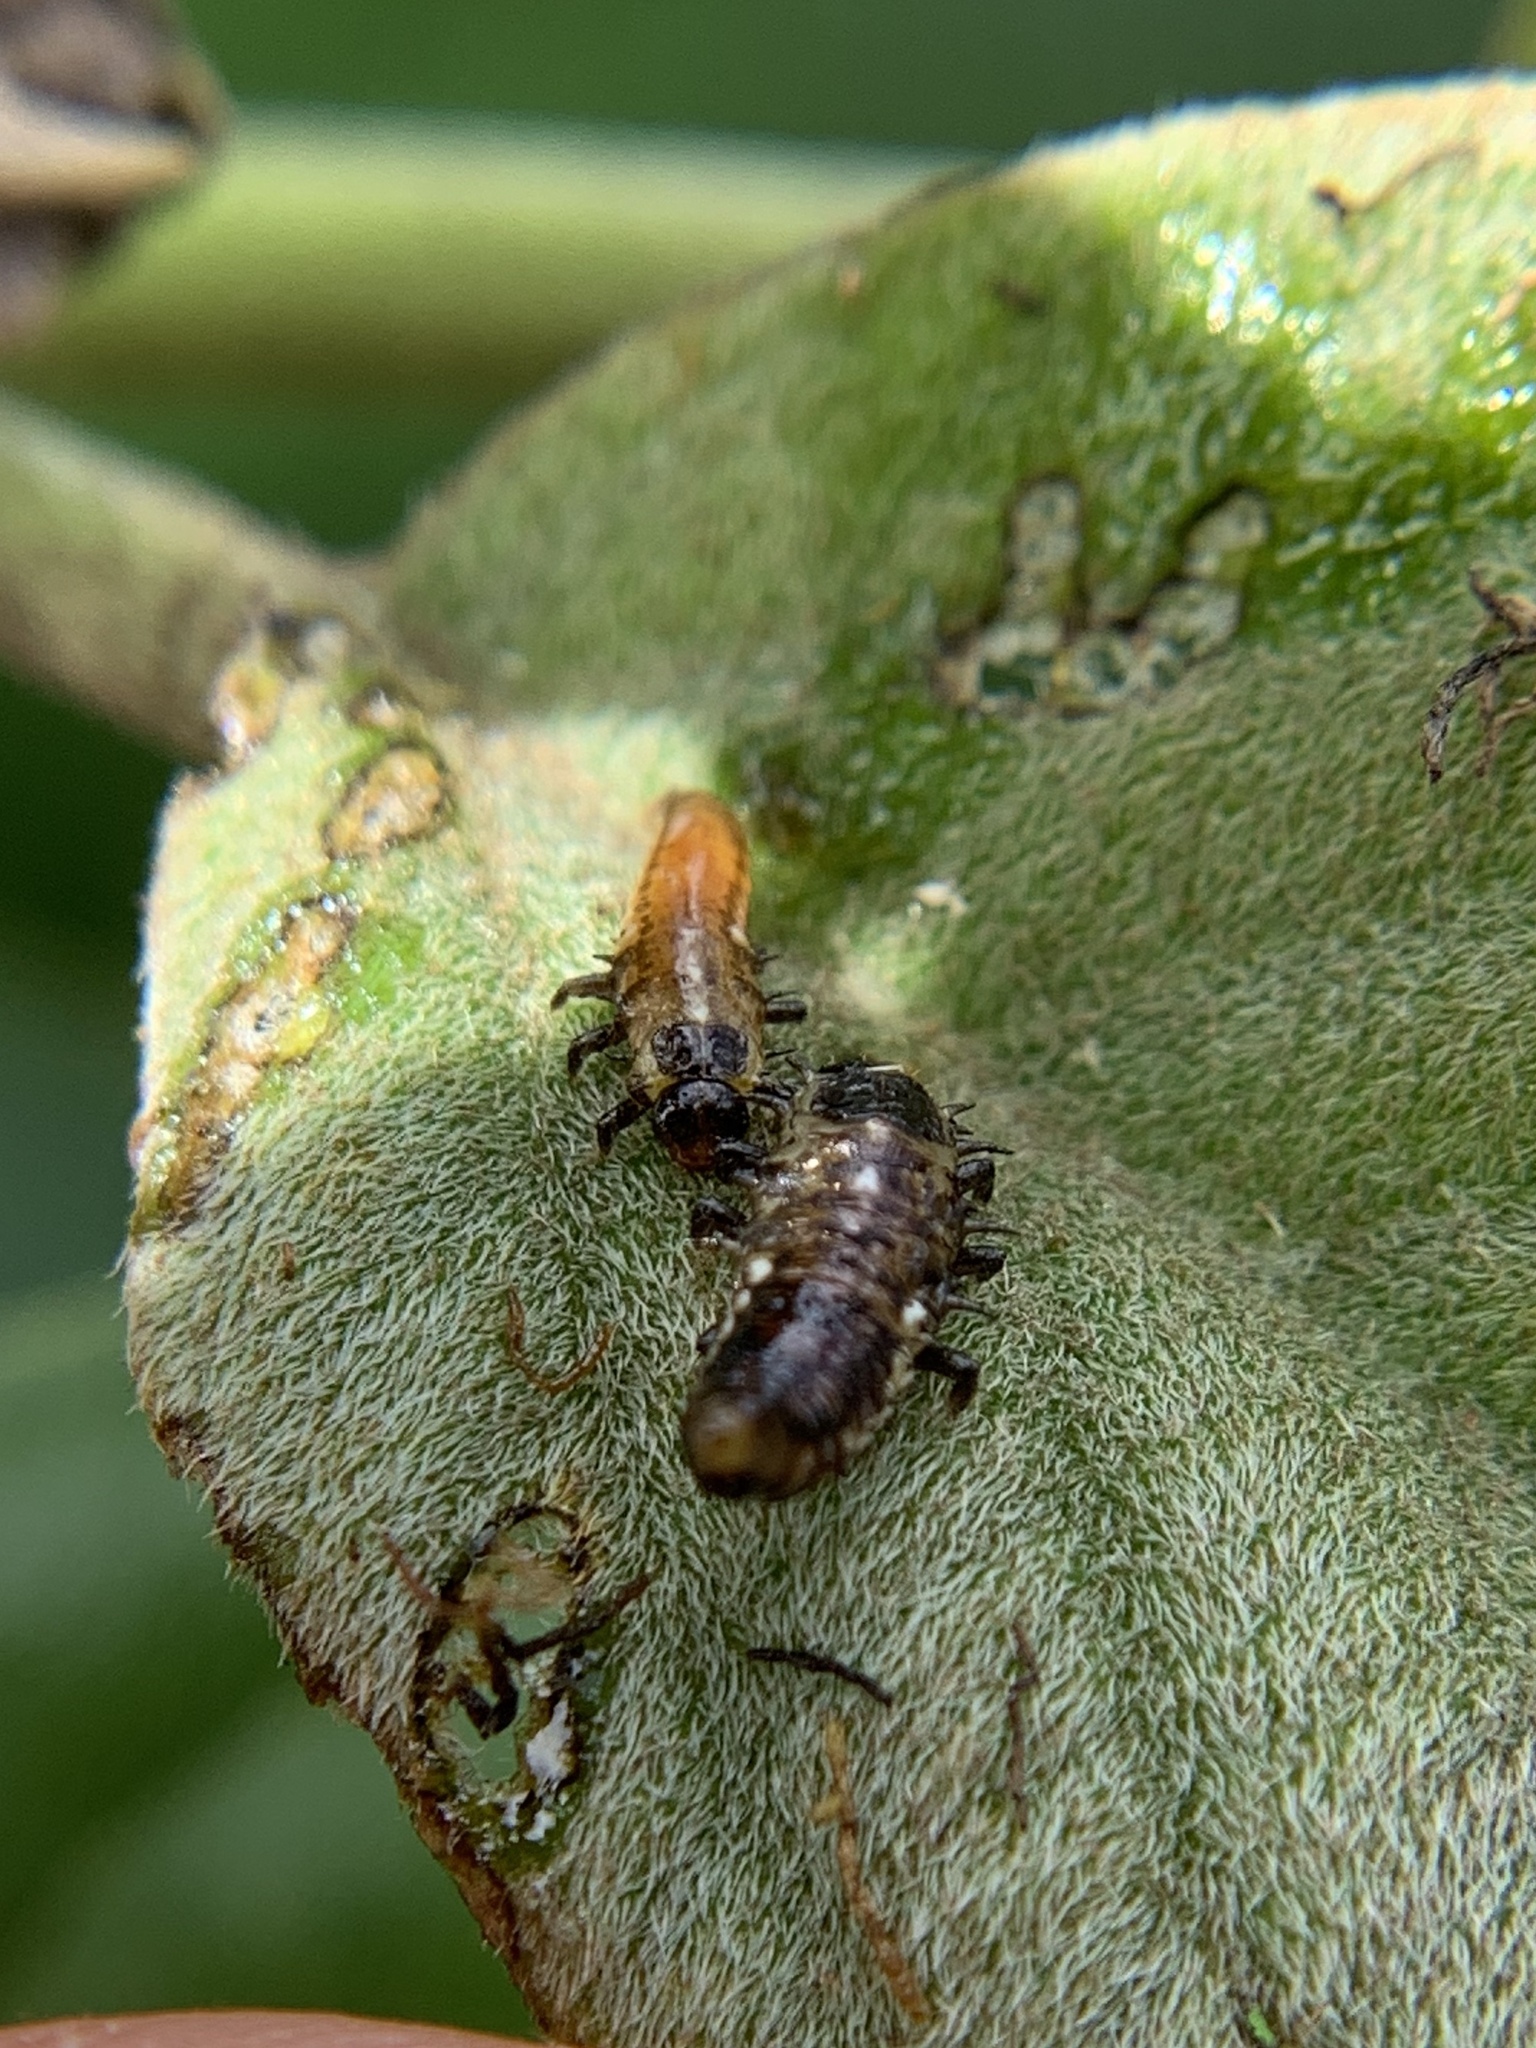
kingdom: Animalia
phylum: Arthropoda
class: Insecta
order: Coleoptera
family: Chrysomelidae
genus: Eurypepla
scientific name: Eurypepla calochroma
